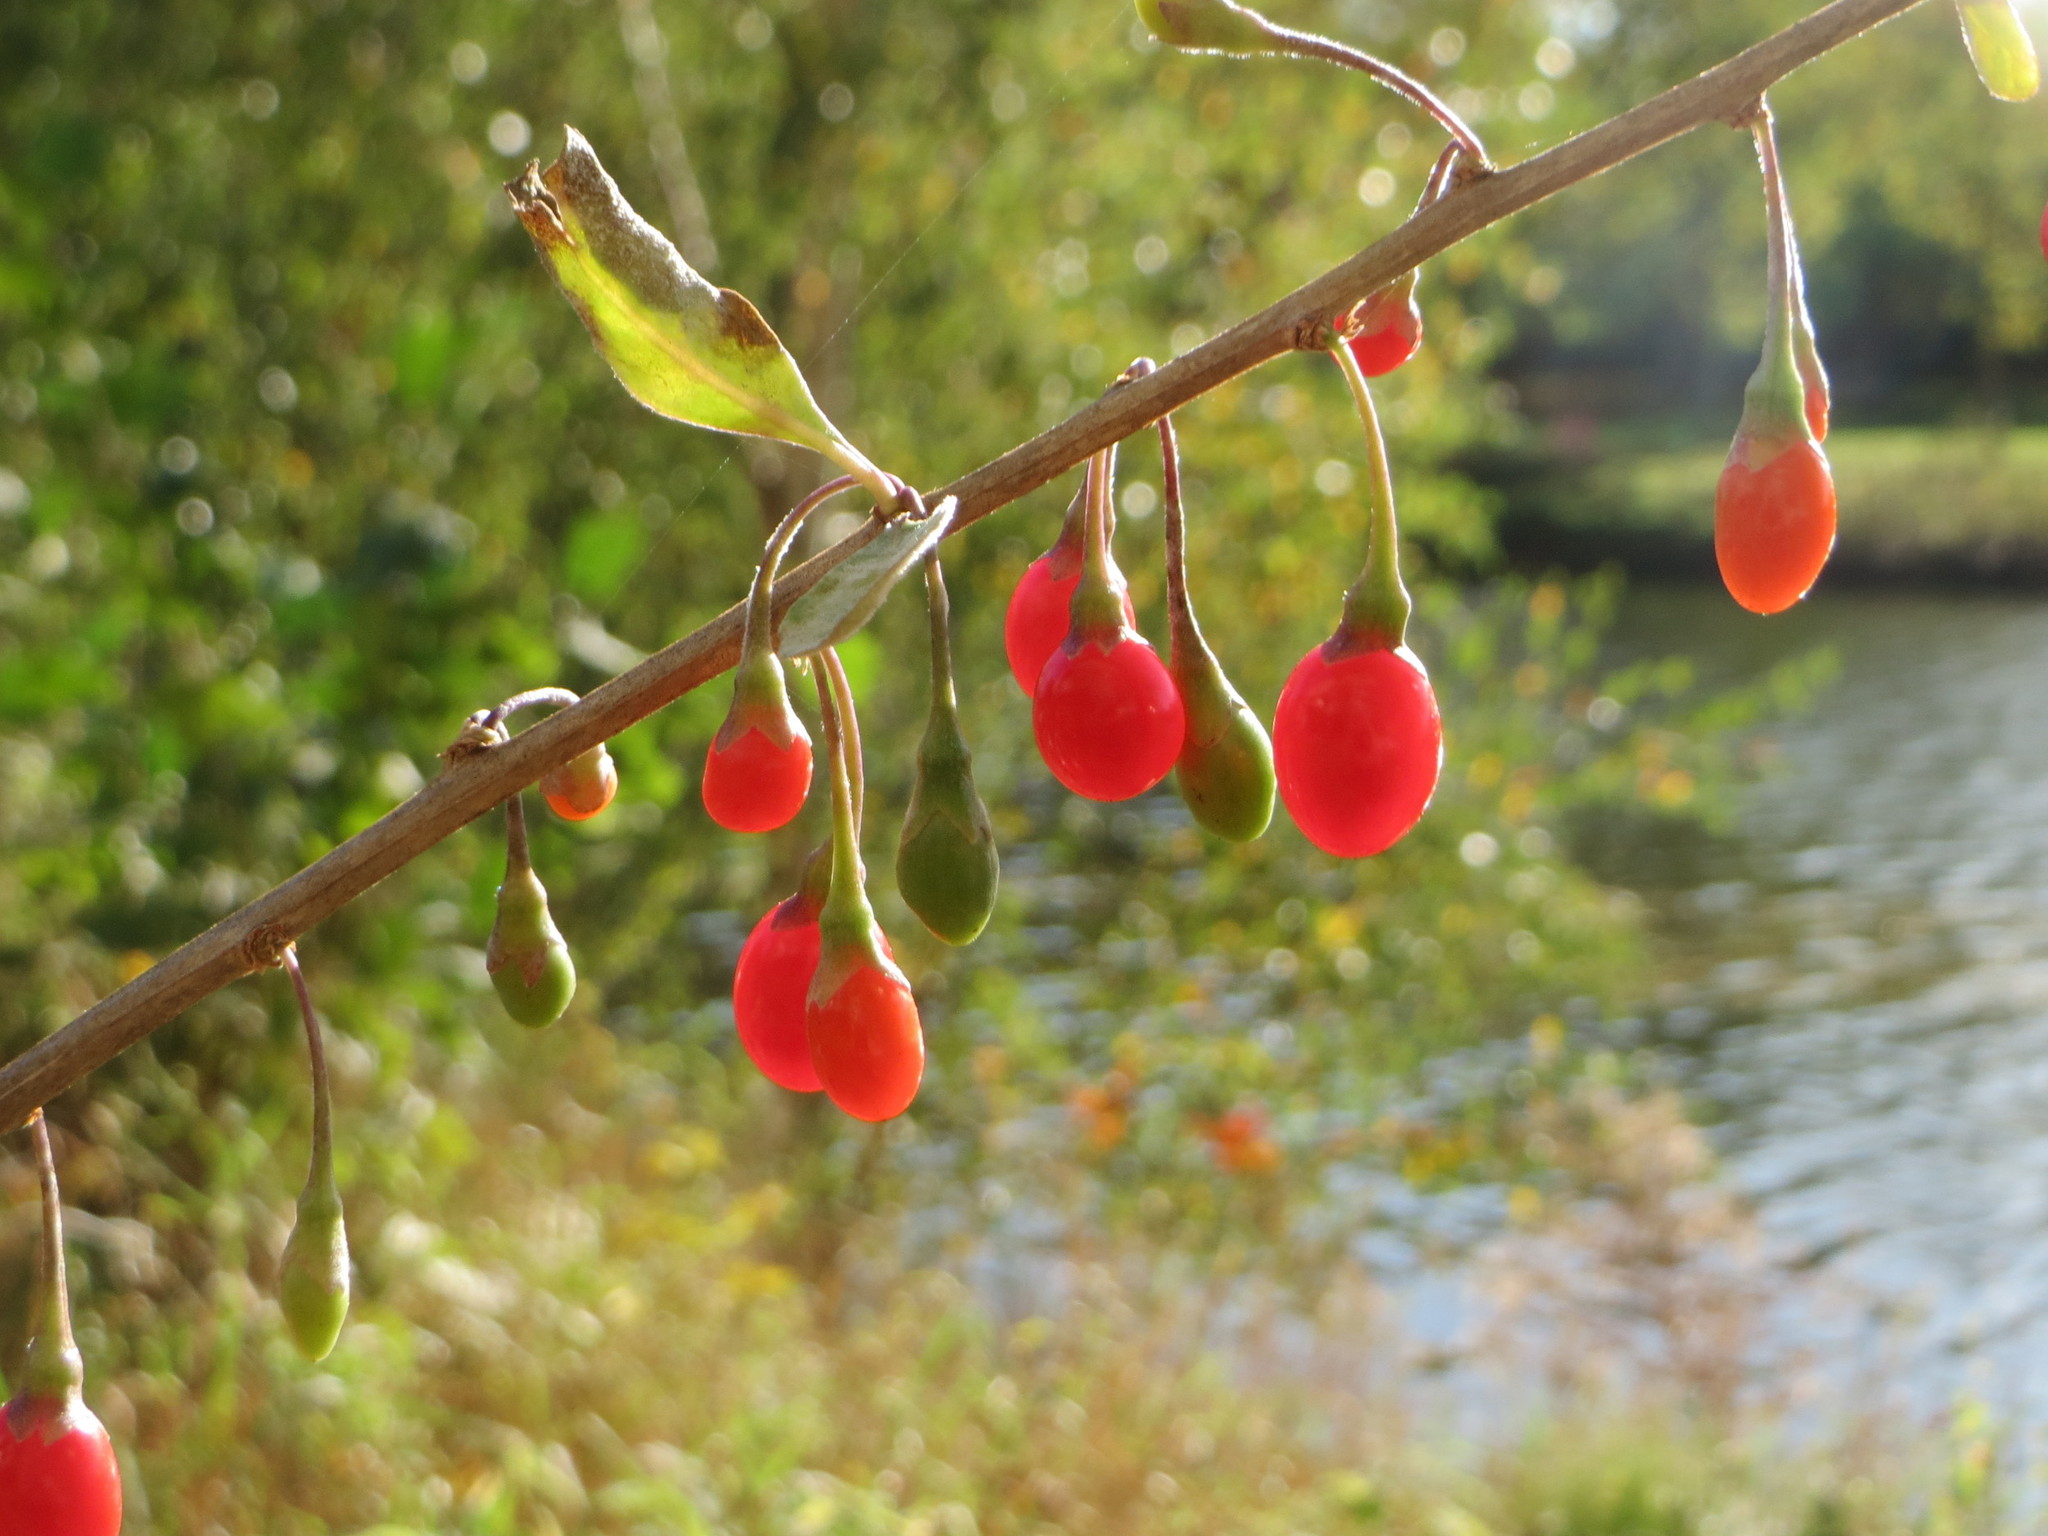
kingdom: Plantae
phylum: Tracheophyta
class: Magnoliopsida
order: Solanales
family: Solanaceae
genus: Lycium
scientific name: Lycium barbarum
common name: Duke of argyll's teaplant
